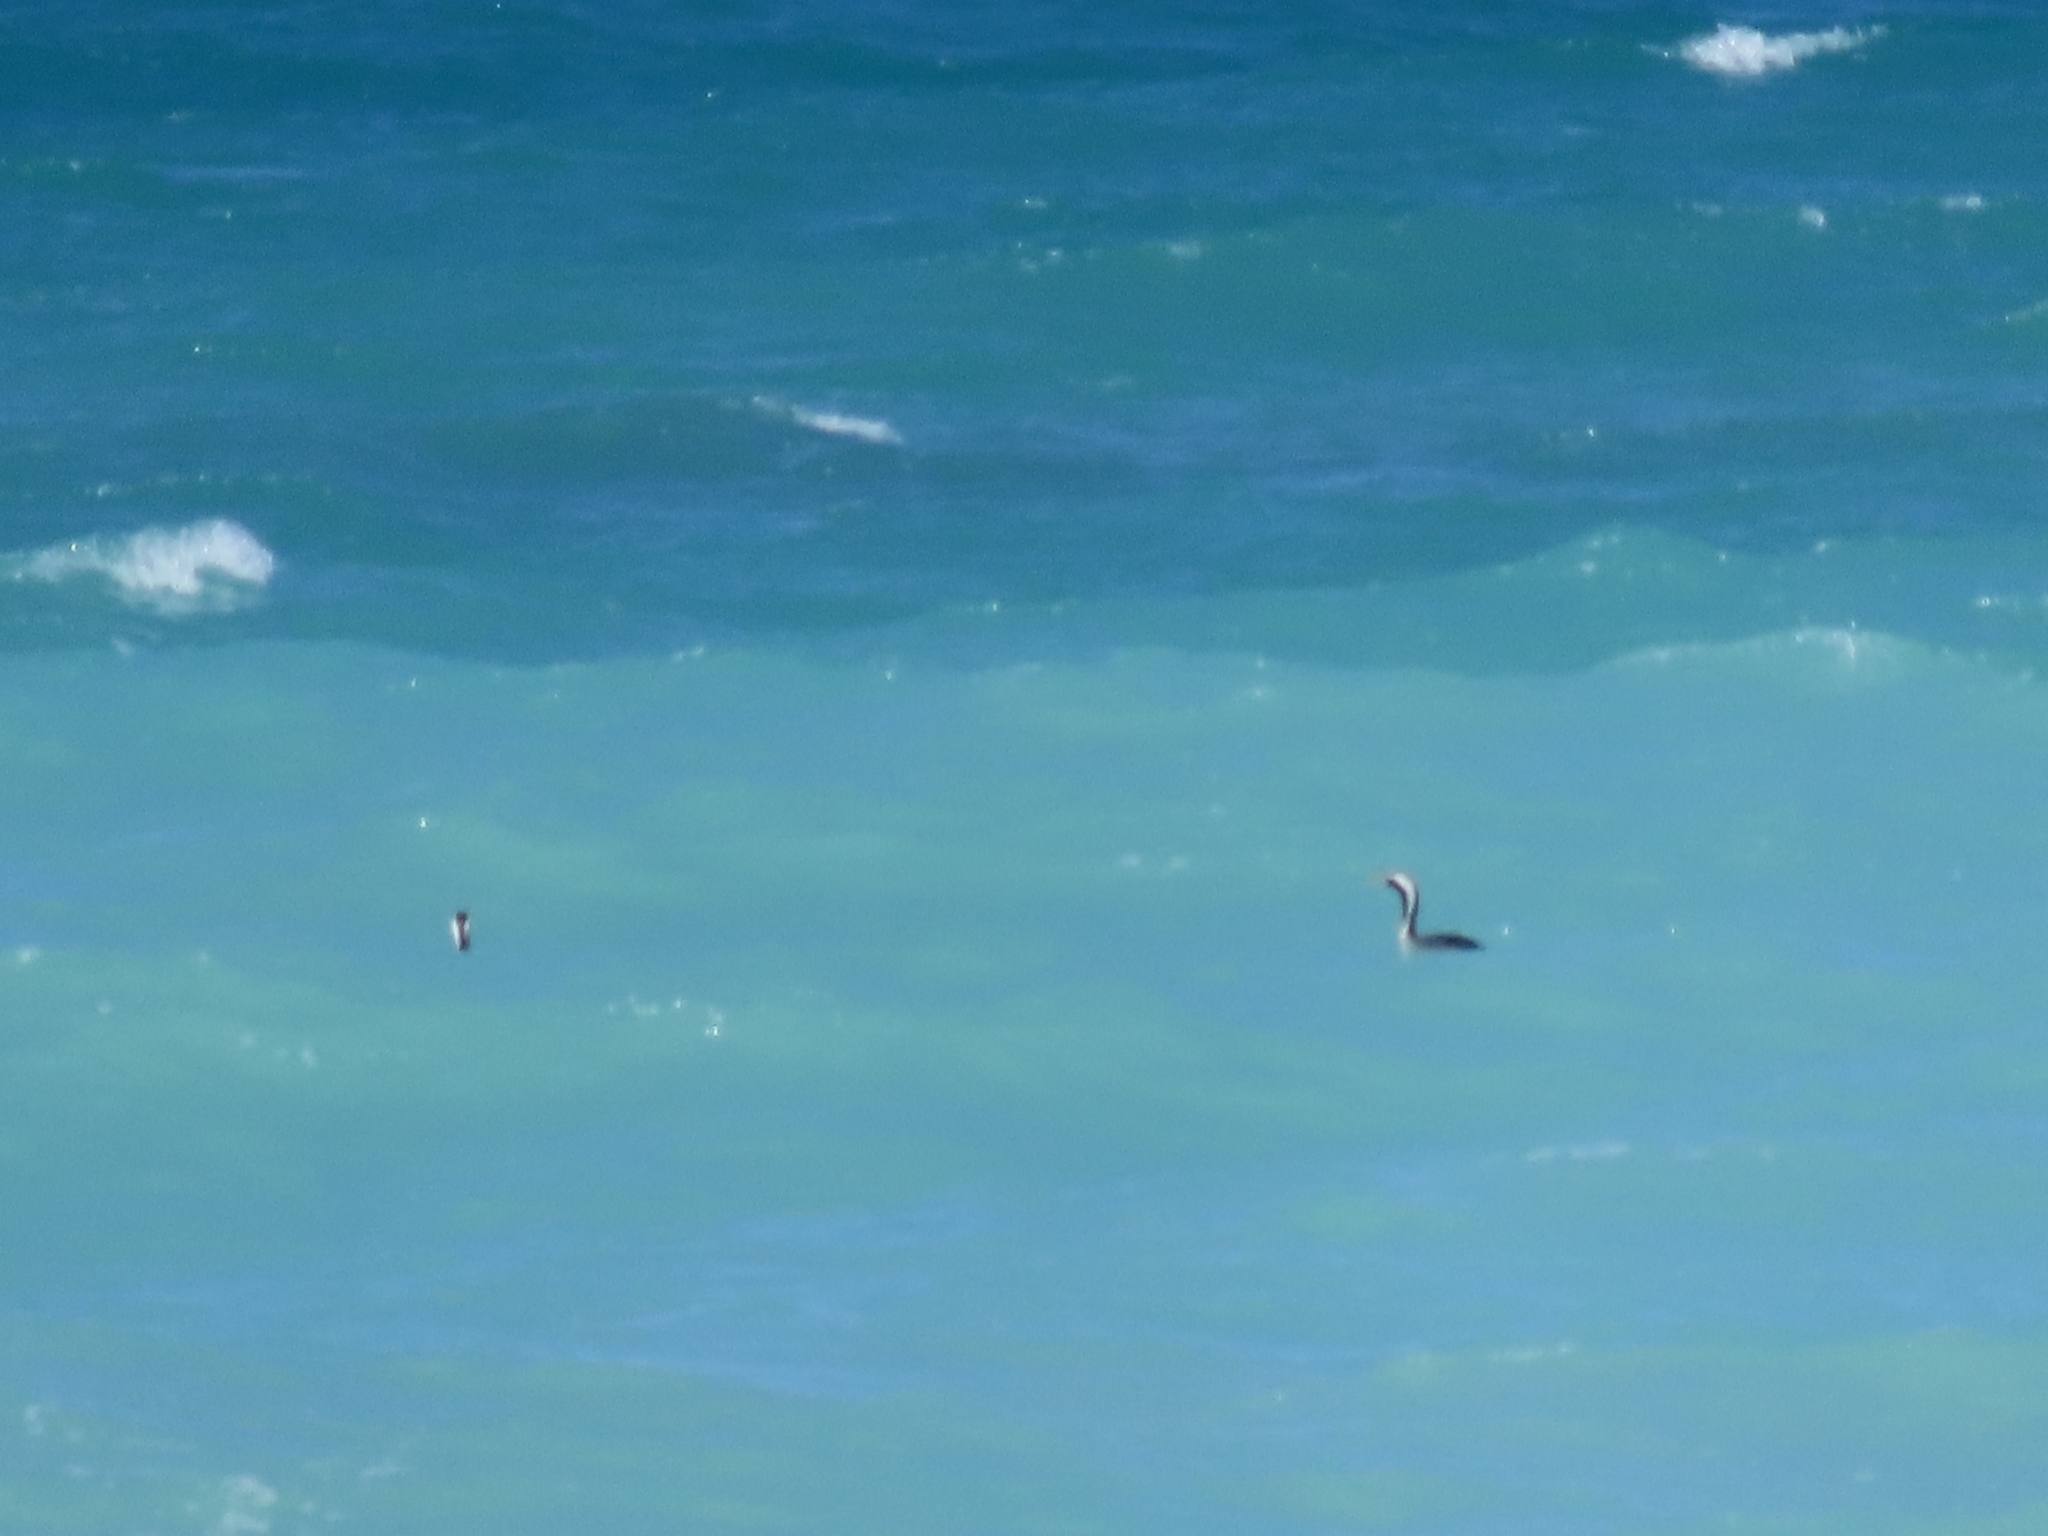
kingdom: Animalia
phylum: Chordata
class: Aves
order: Suliformes
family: Phalacrocoracidae
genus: Phalacrocorax
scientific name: Phalacrocorax punctatus
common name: Spotted shag
